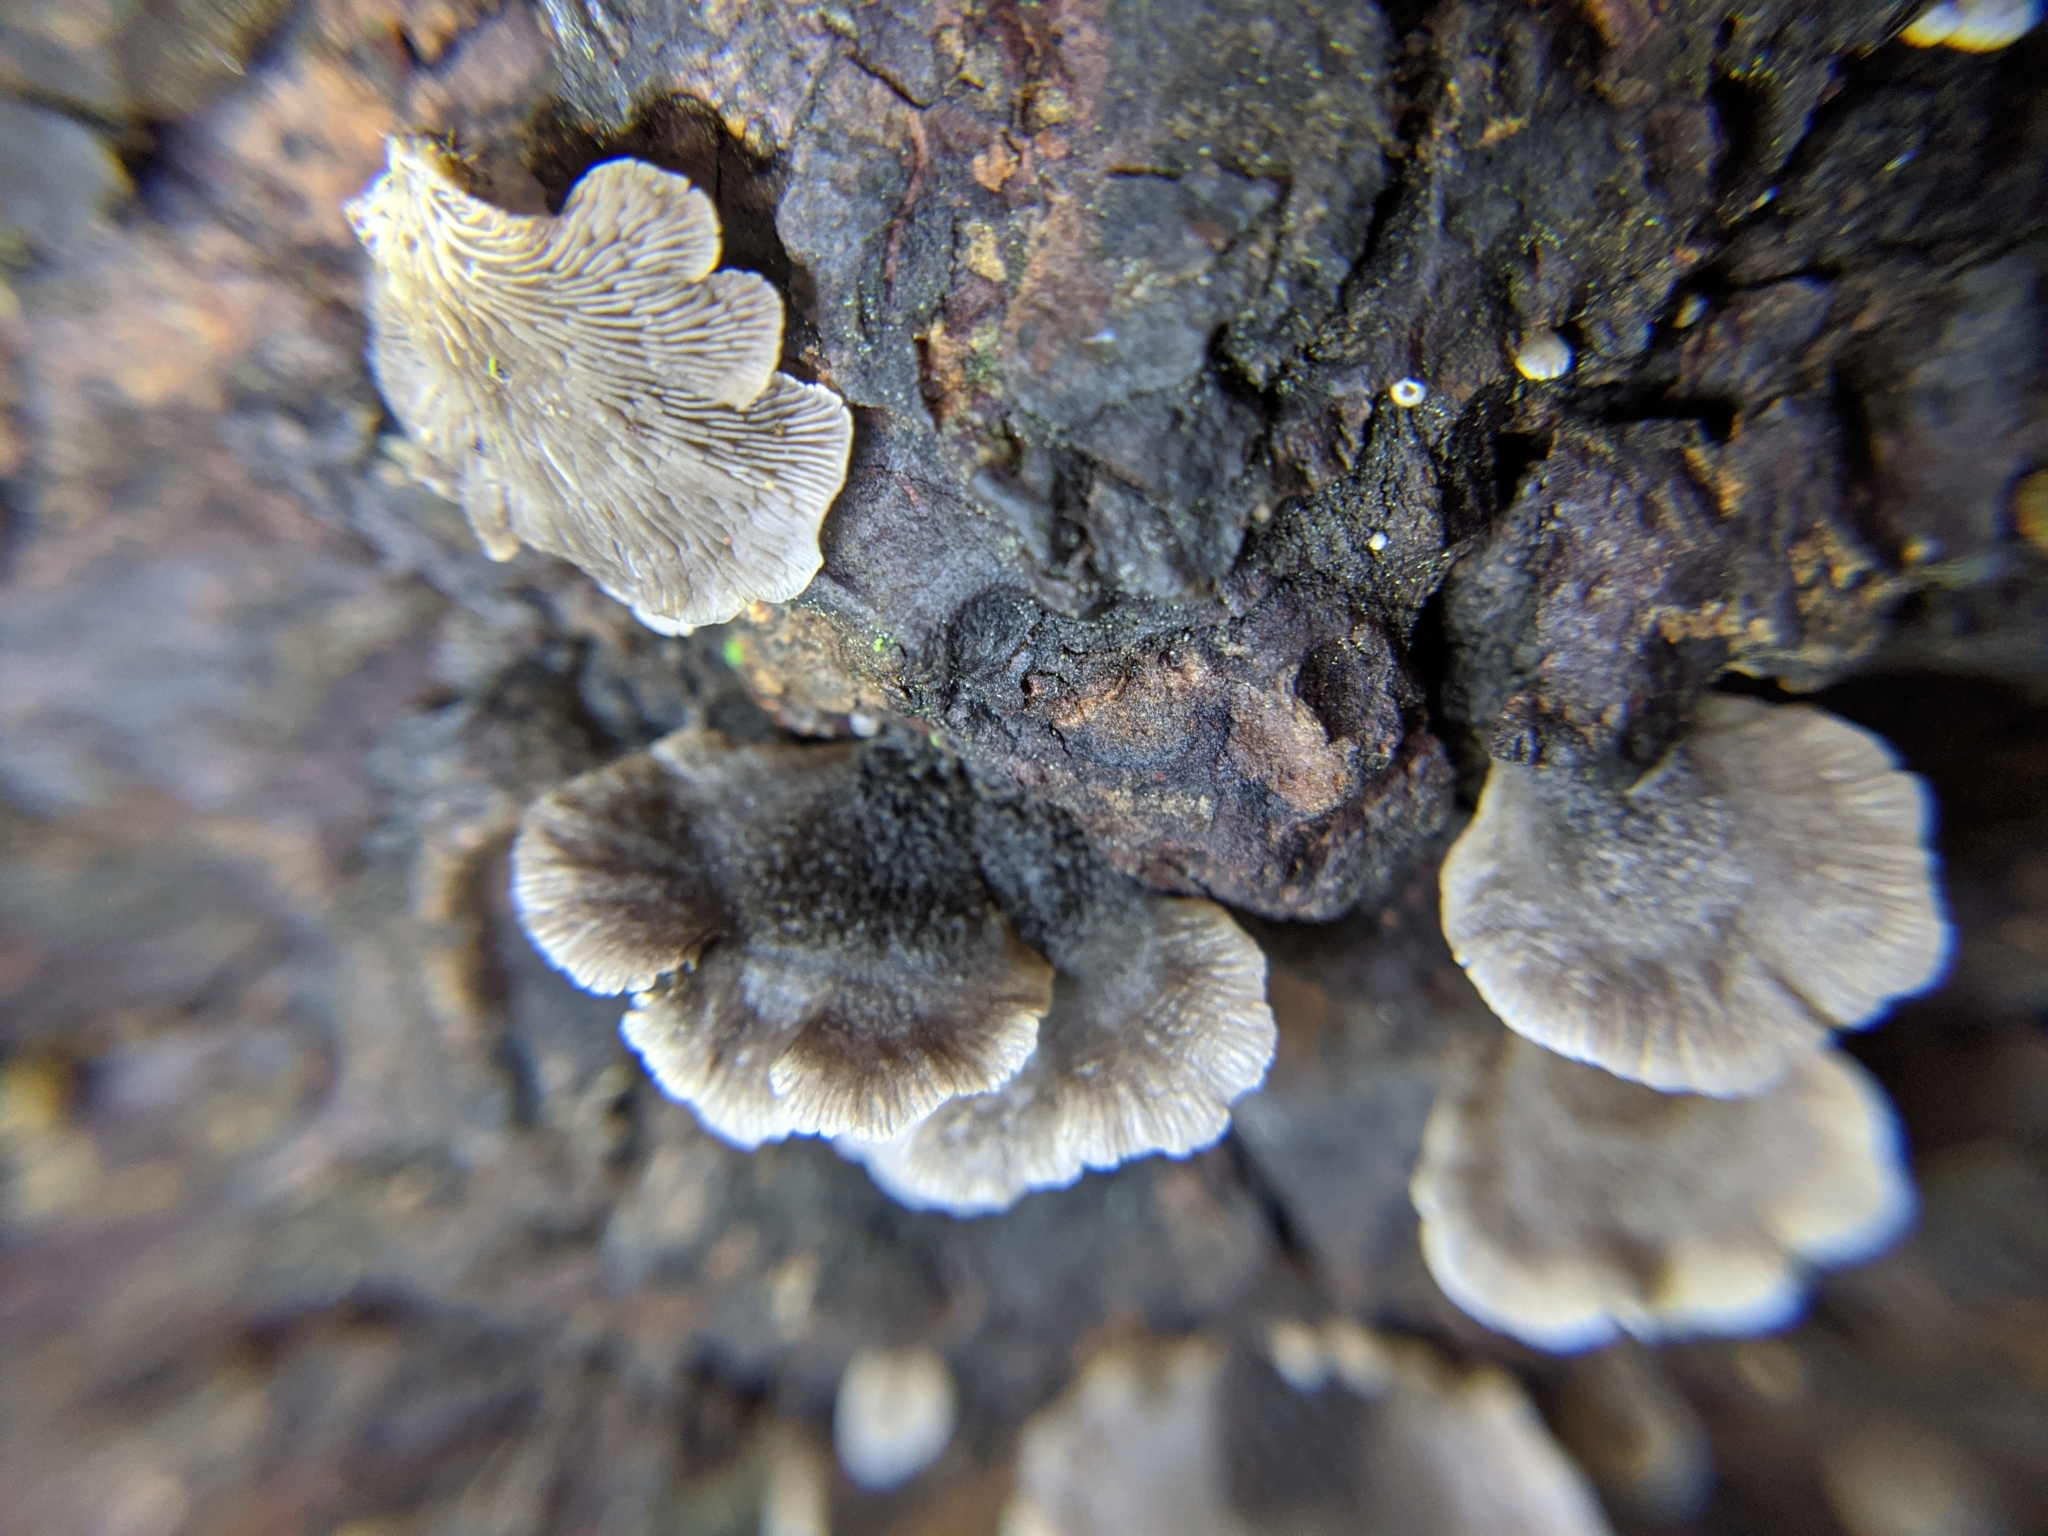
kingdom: Fungi
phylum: Basidiomycota
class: Agaricomycetes
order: Agaricales
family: Pleurotaceae
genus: Resupinatus
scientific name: Resupinatus trichotis
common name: Hairy oysterling
